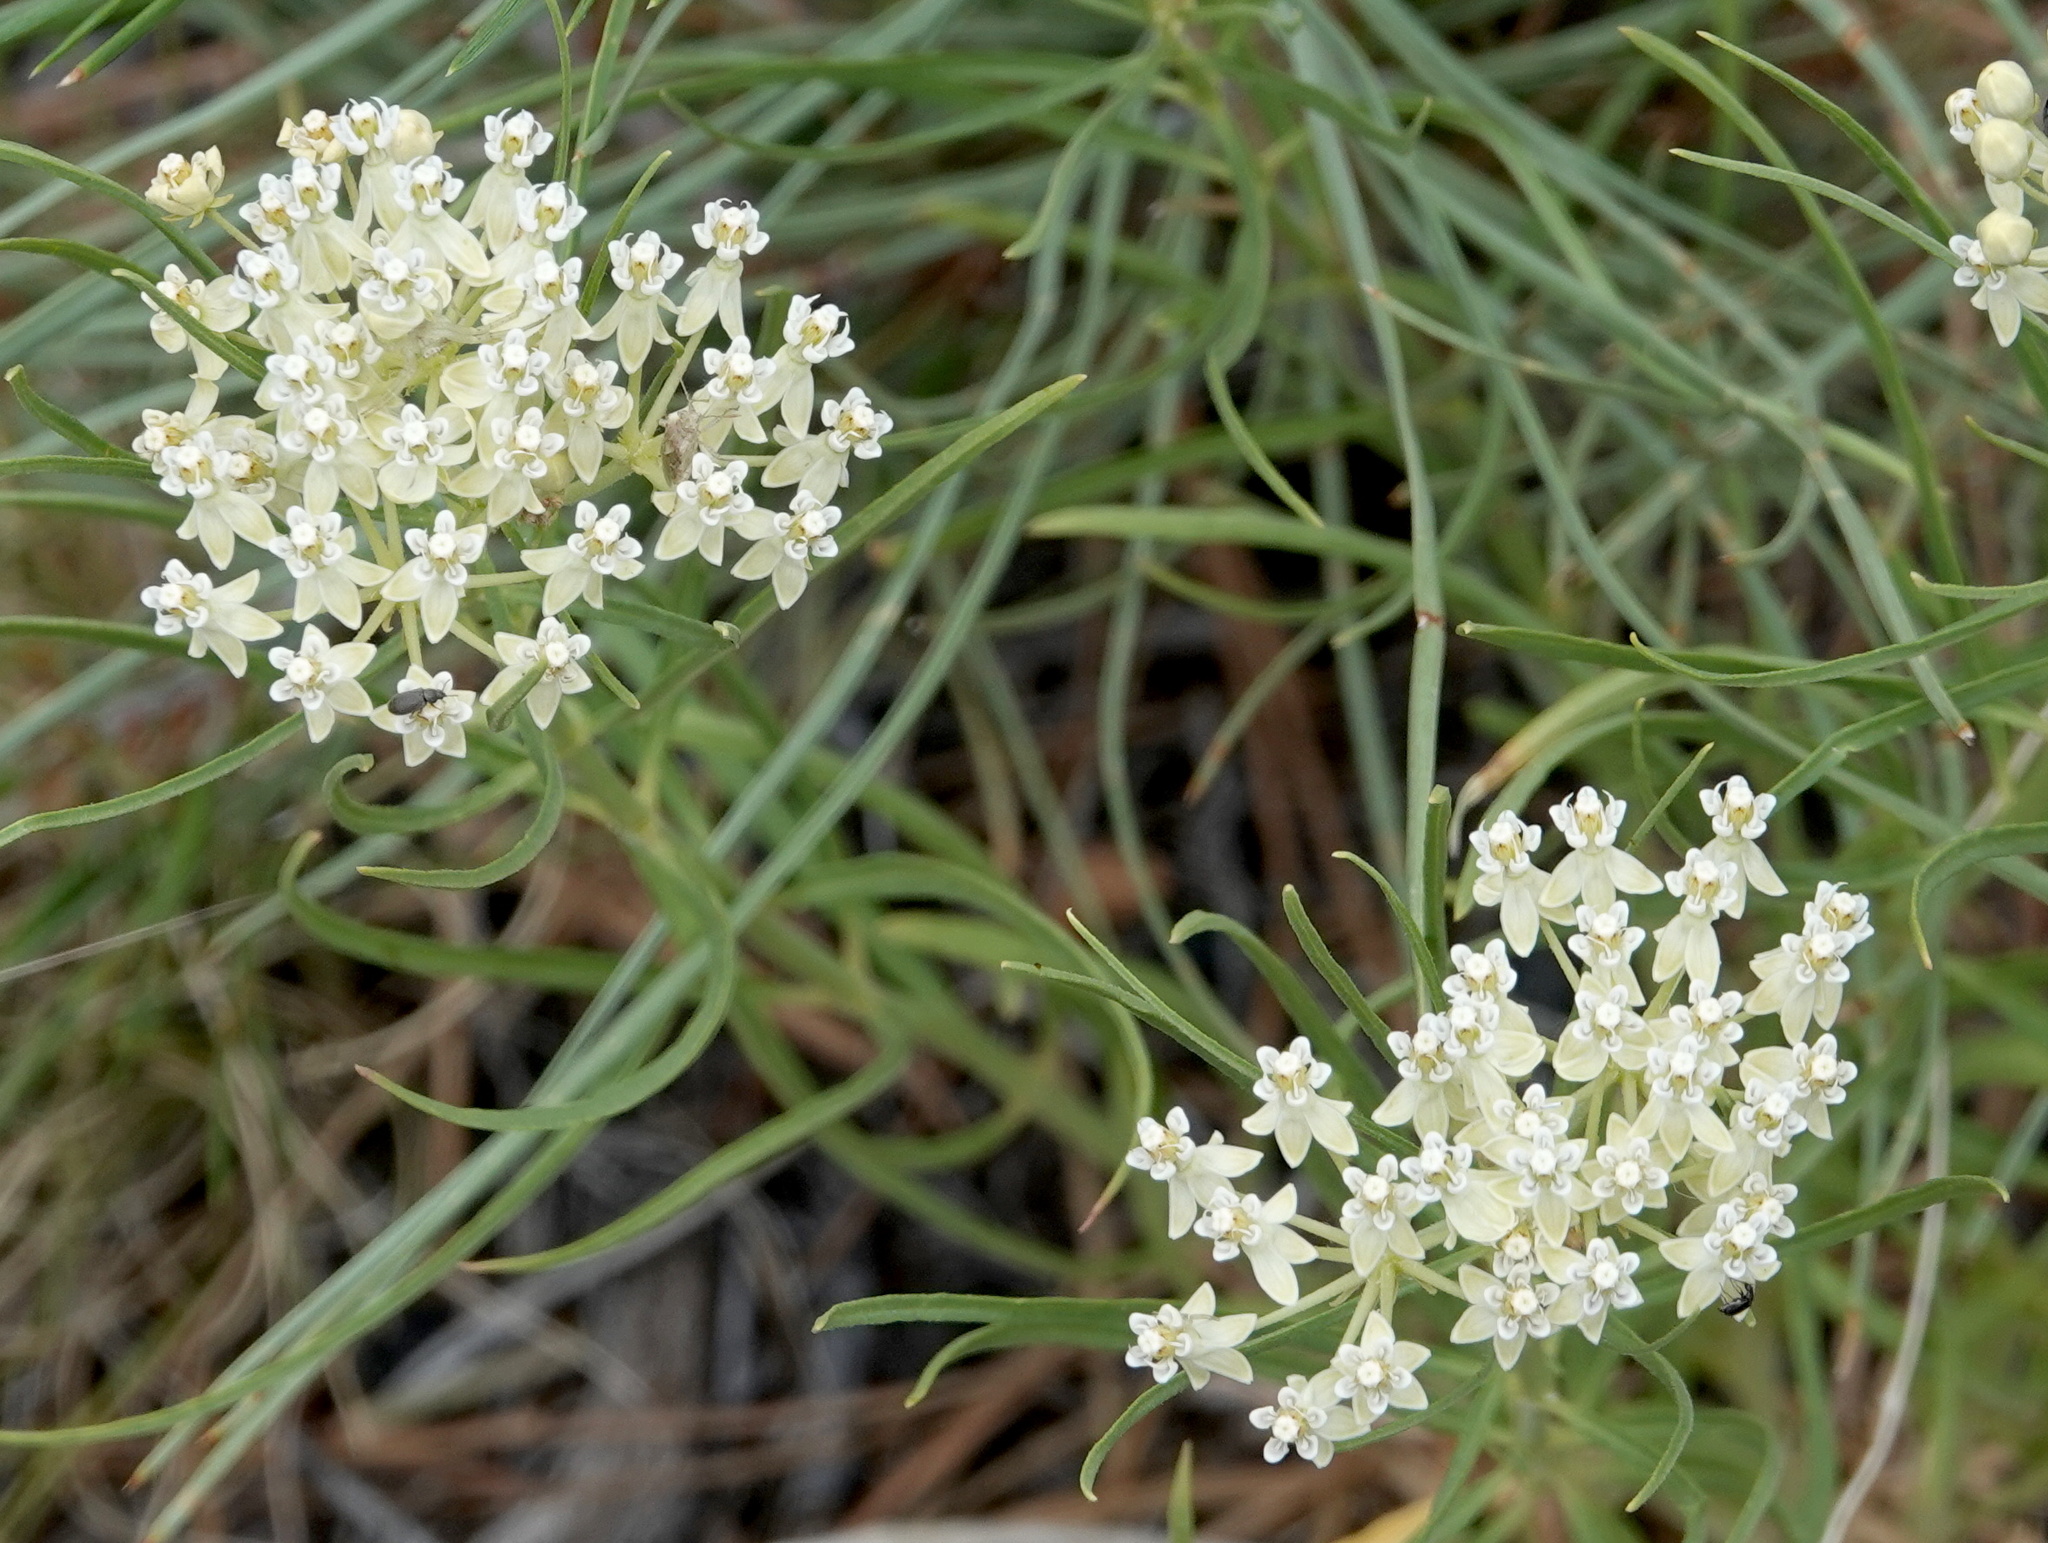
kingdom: Plantae
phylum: Tracheophyta
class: Magnoliopsida
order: Gentianales
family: Apocynaceae
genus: Asclepias
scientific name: Asclepias subverticillata
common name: Horsetail milkweed
